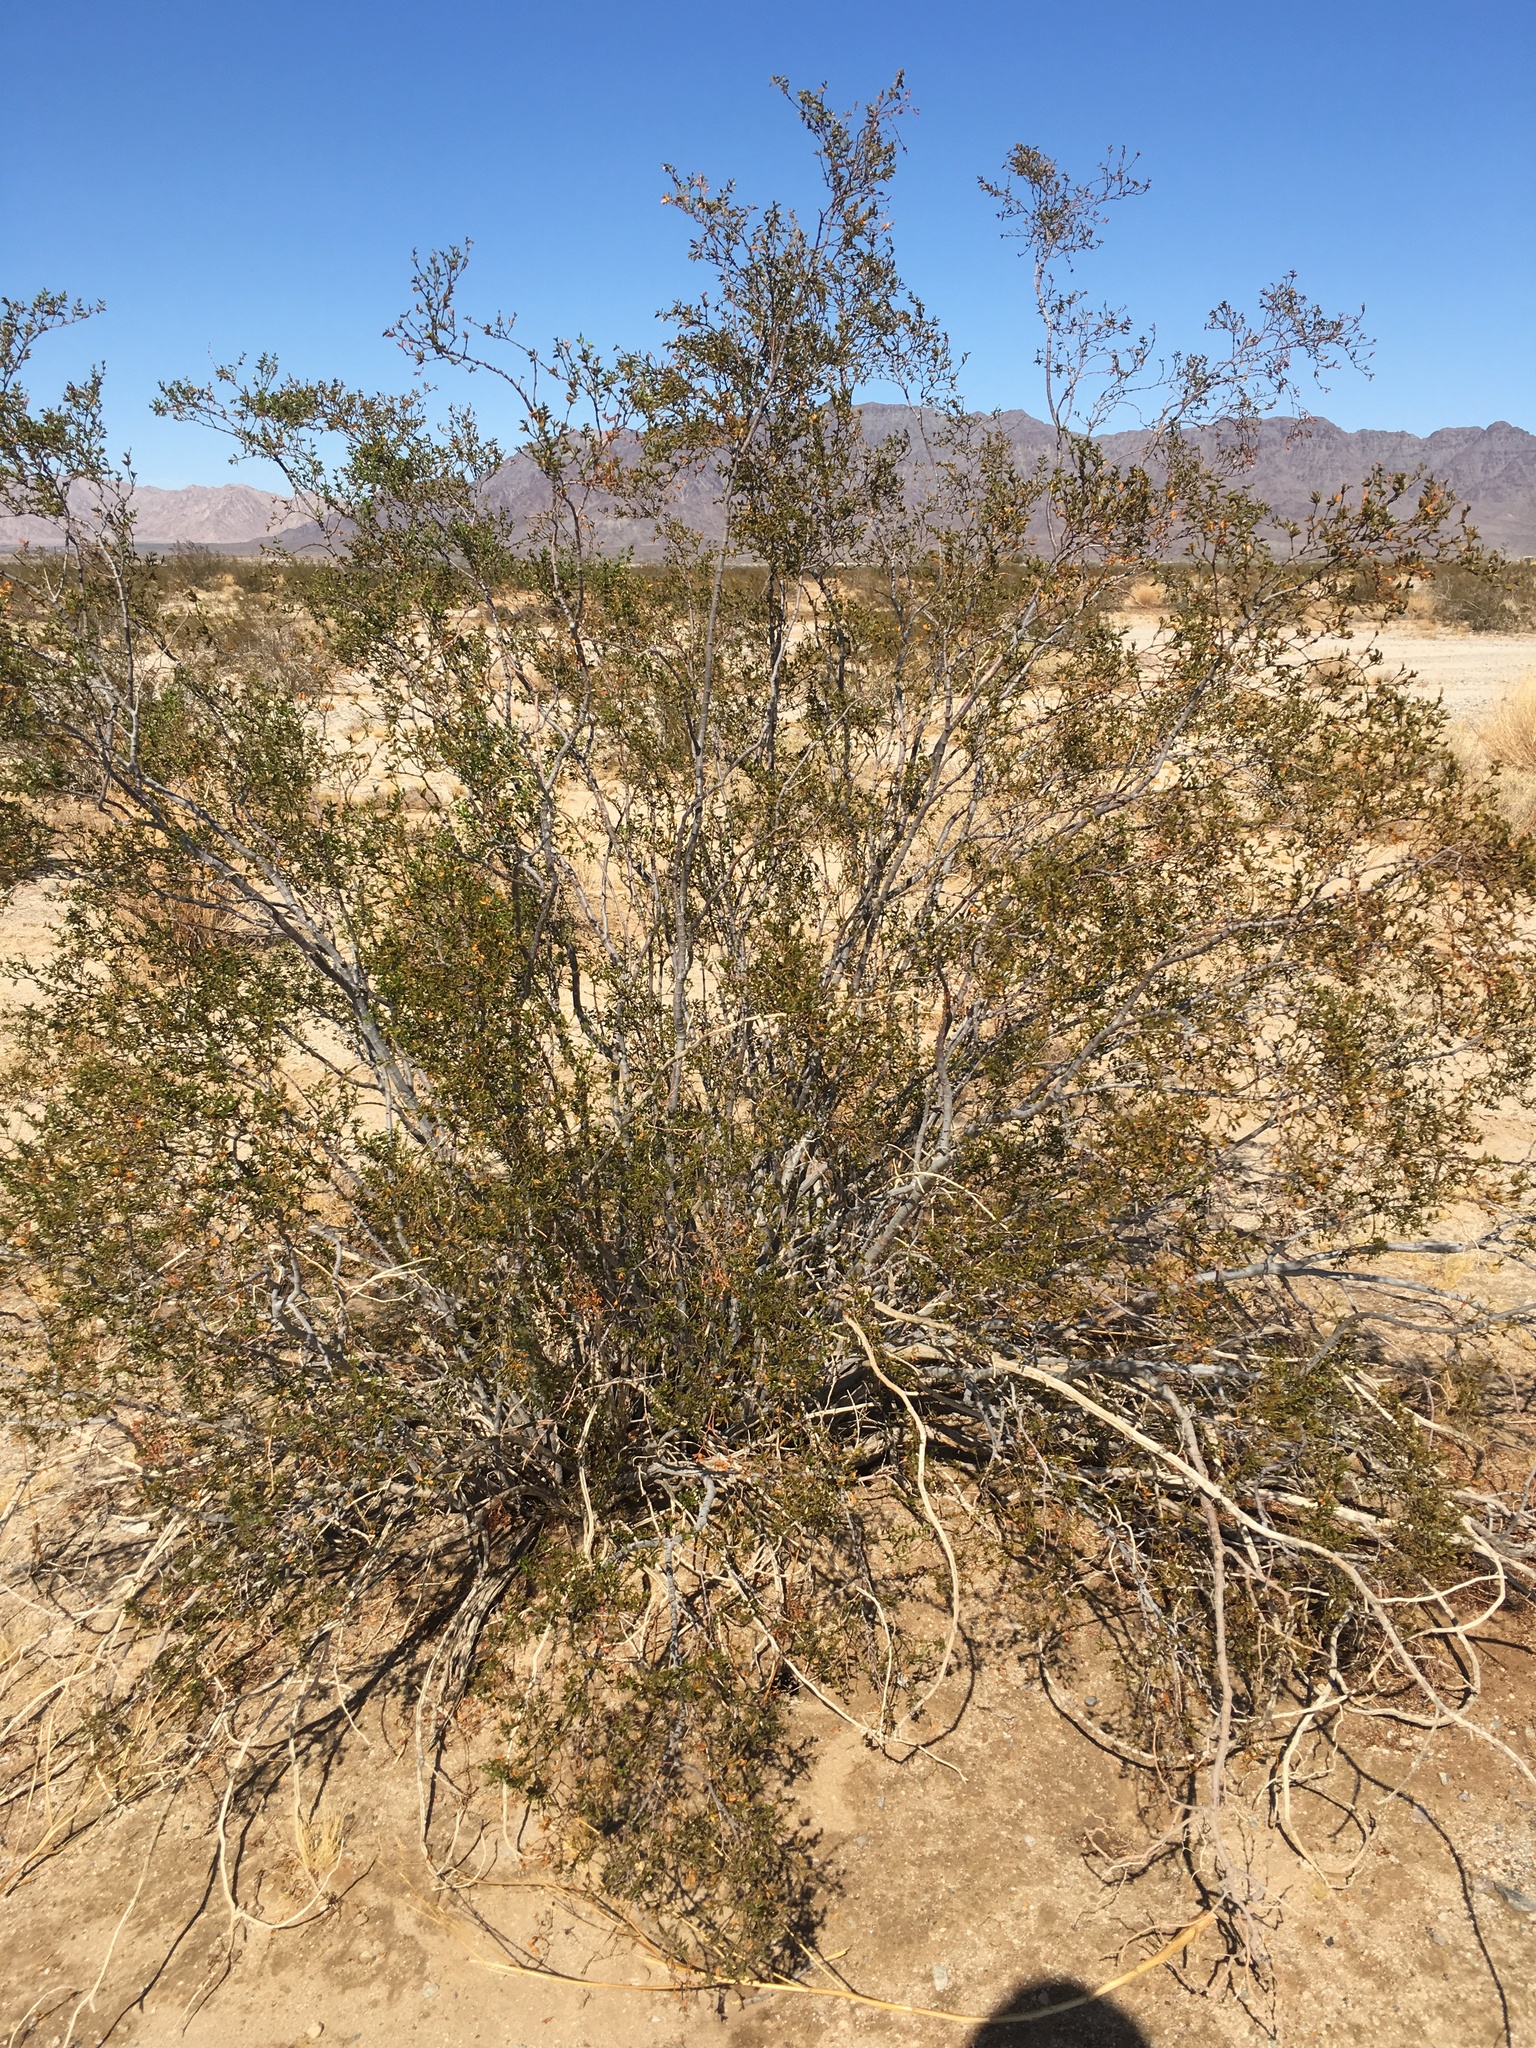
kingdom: Plantae
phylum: Tracheophyta
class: Magnoliopsida
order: Zygophyllales
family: Zygophyllaceae
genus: Larrea
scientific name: Larrea tridentata
